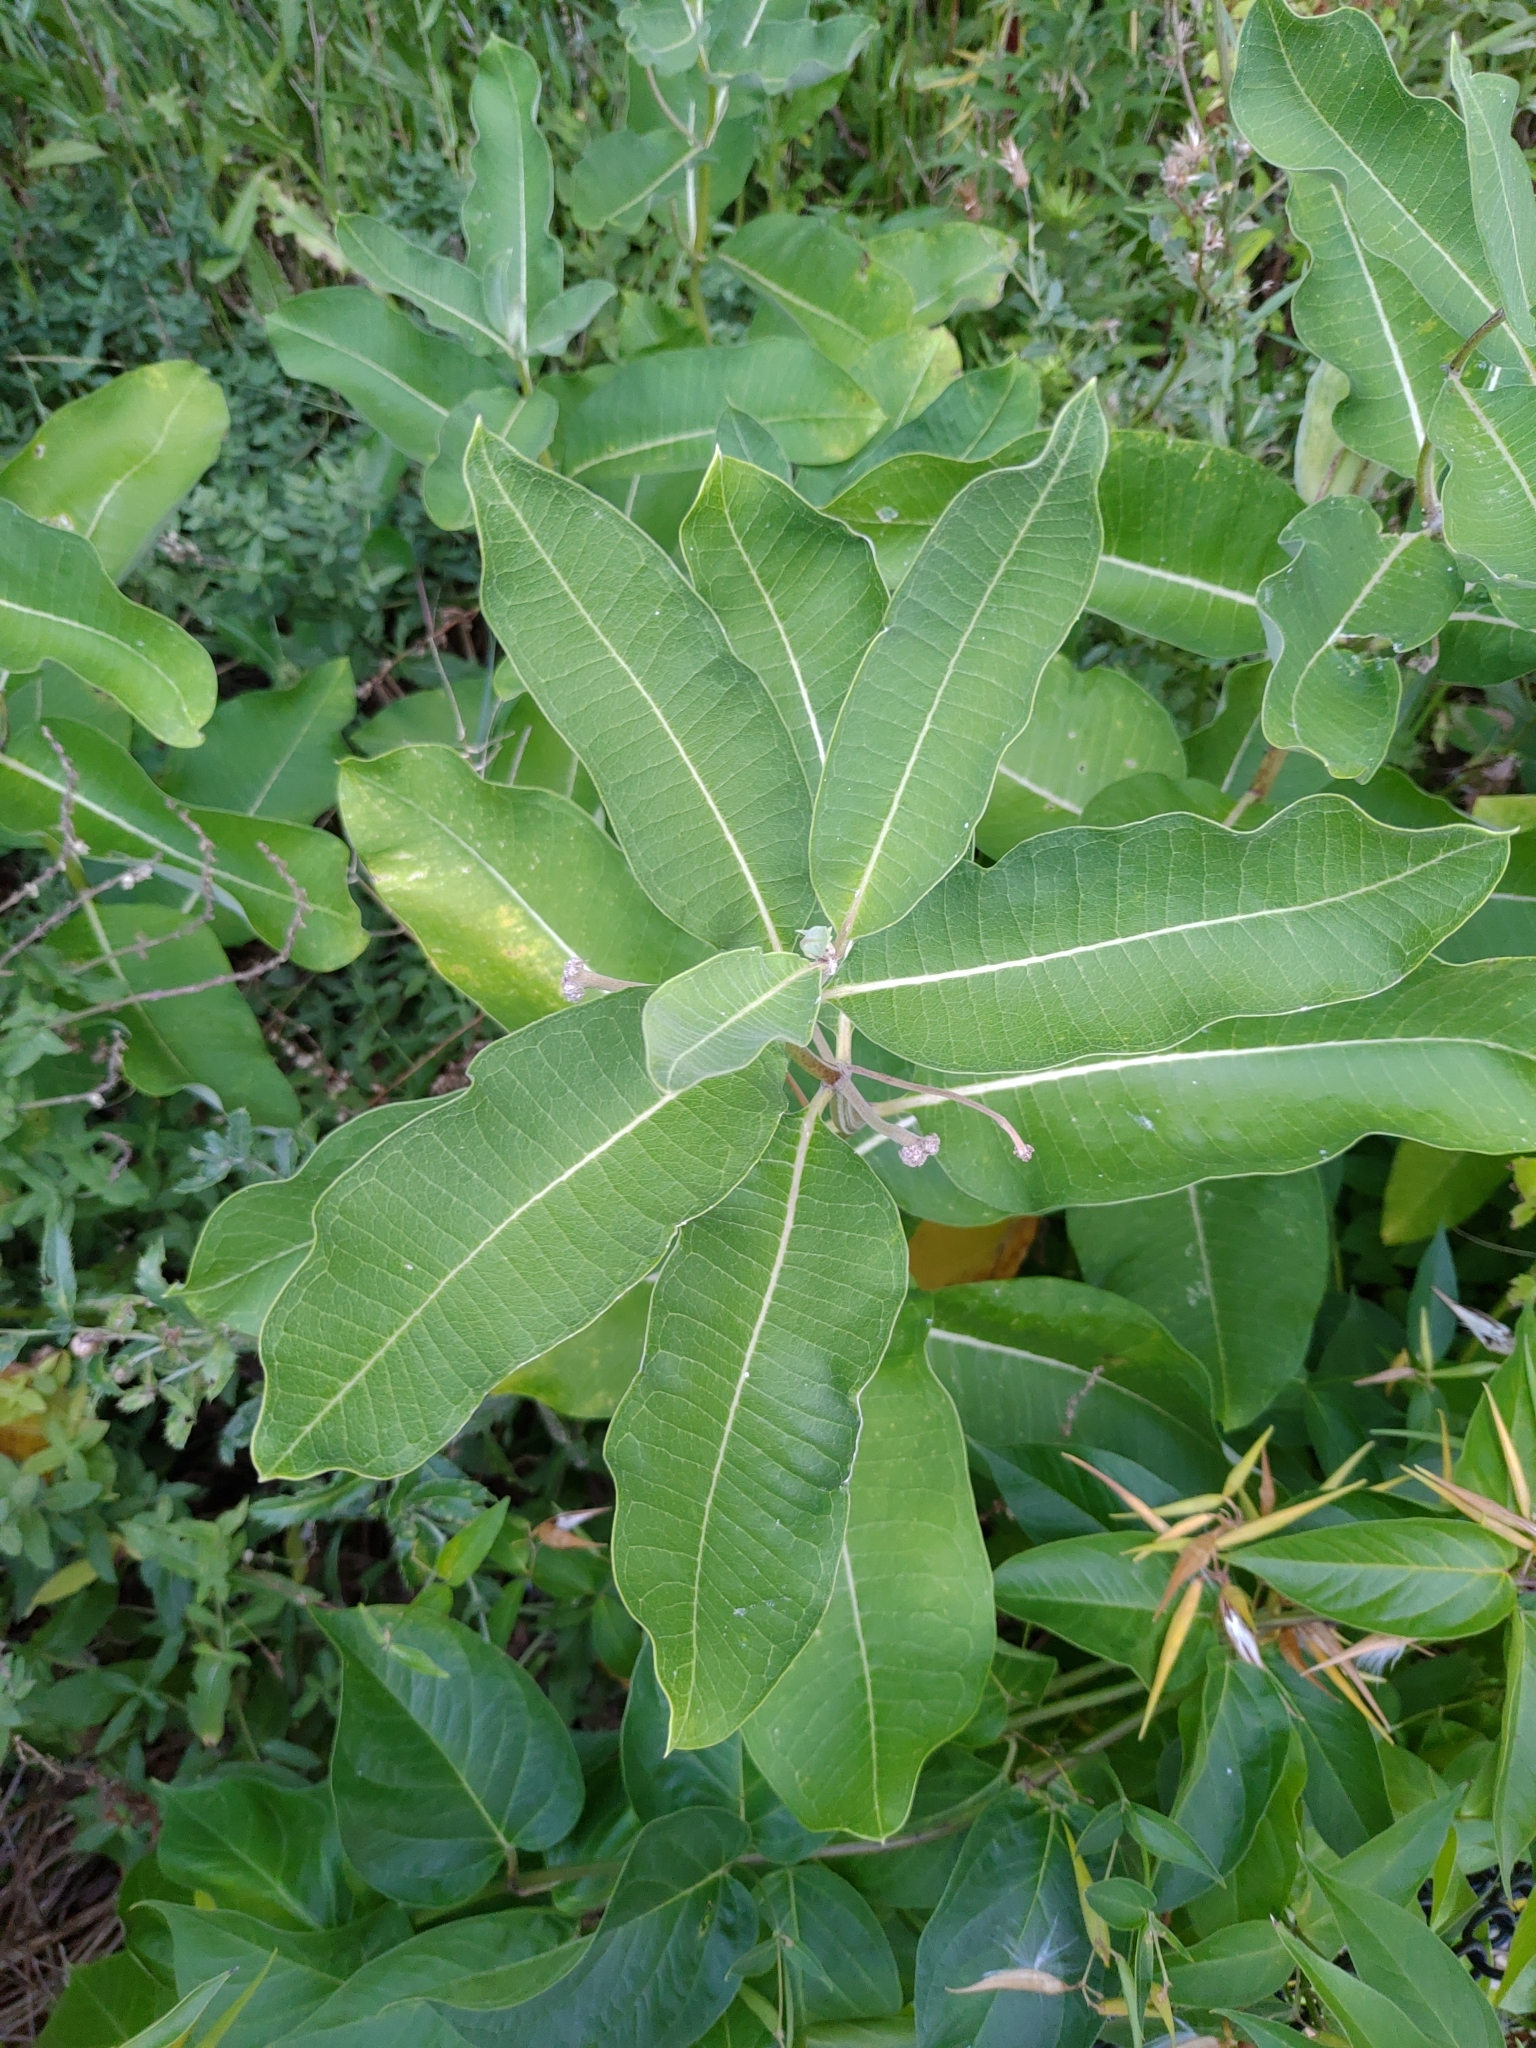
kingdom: Plantae
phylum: Tracheophyta
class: Magnoliopsida
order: Gentianales
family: Apocynaceae
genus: Asclepias
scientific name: Asclepias syriaca
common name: Common milkweed
